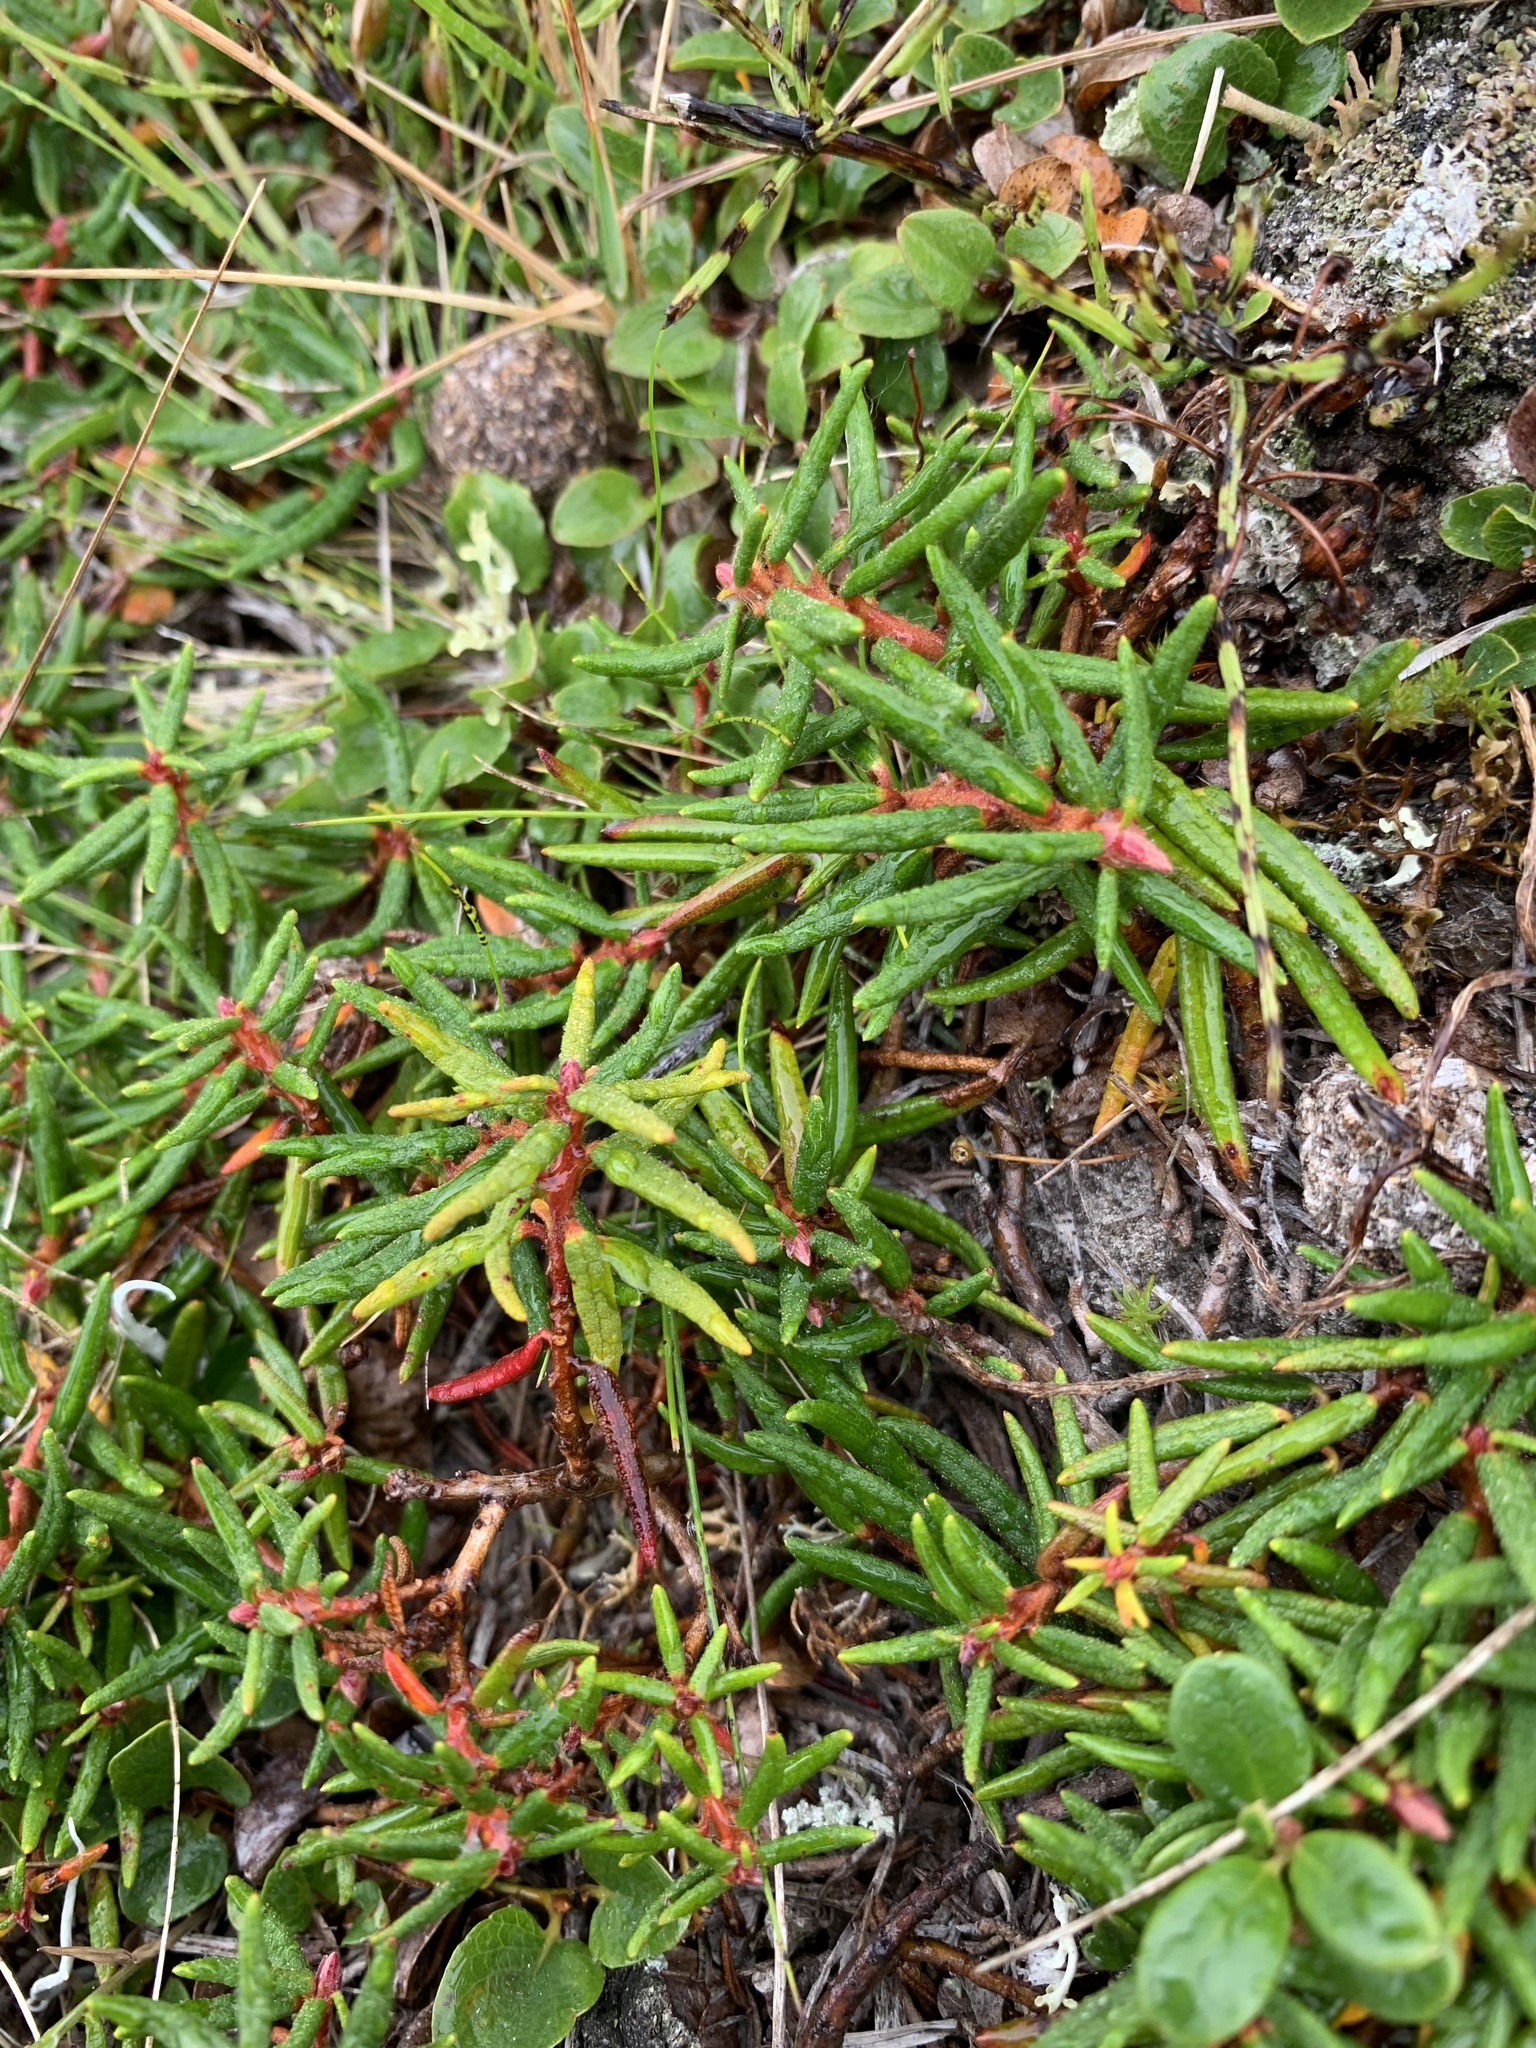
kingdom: Plantae
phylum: Tracheophyta
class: Magnoliopsida
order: Ericales
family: Ericaceae
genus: Rhododendron
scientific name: Rhododendron tomentosum
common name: Marsh labrador tea
